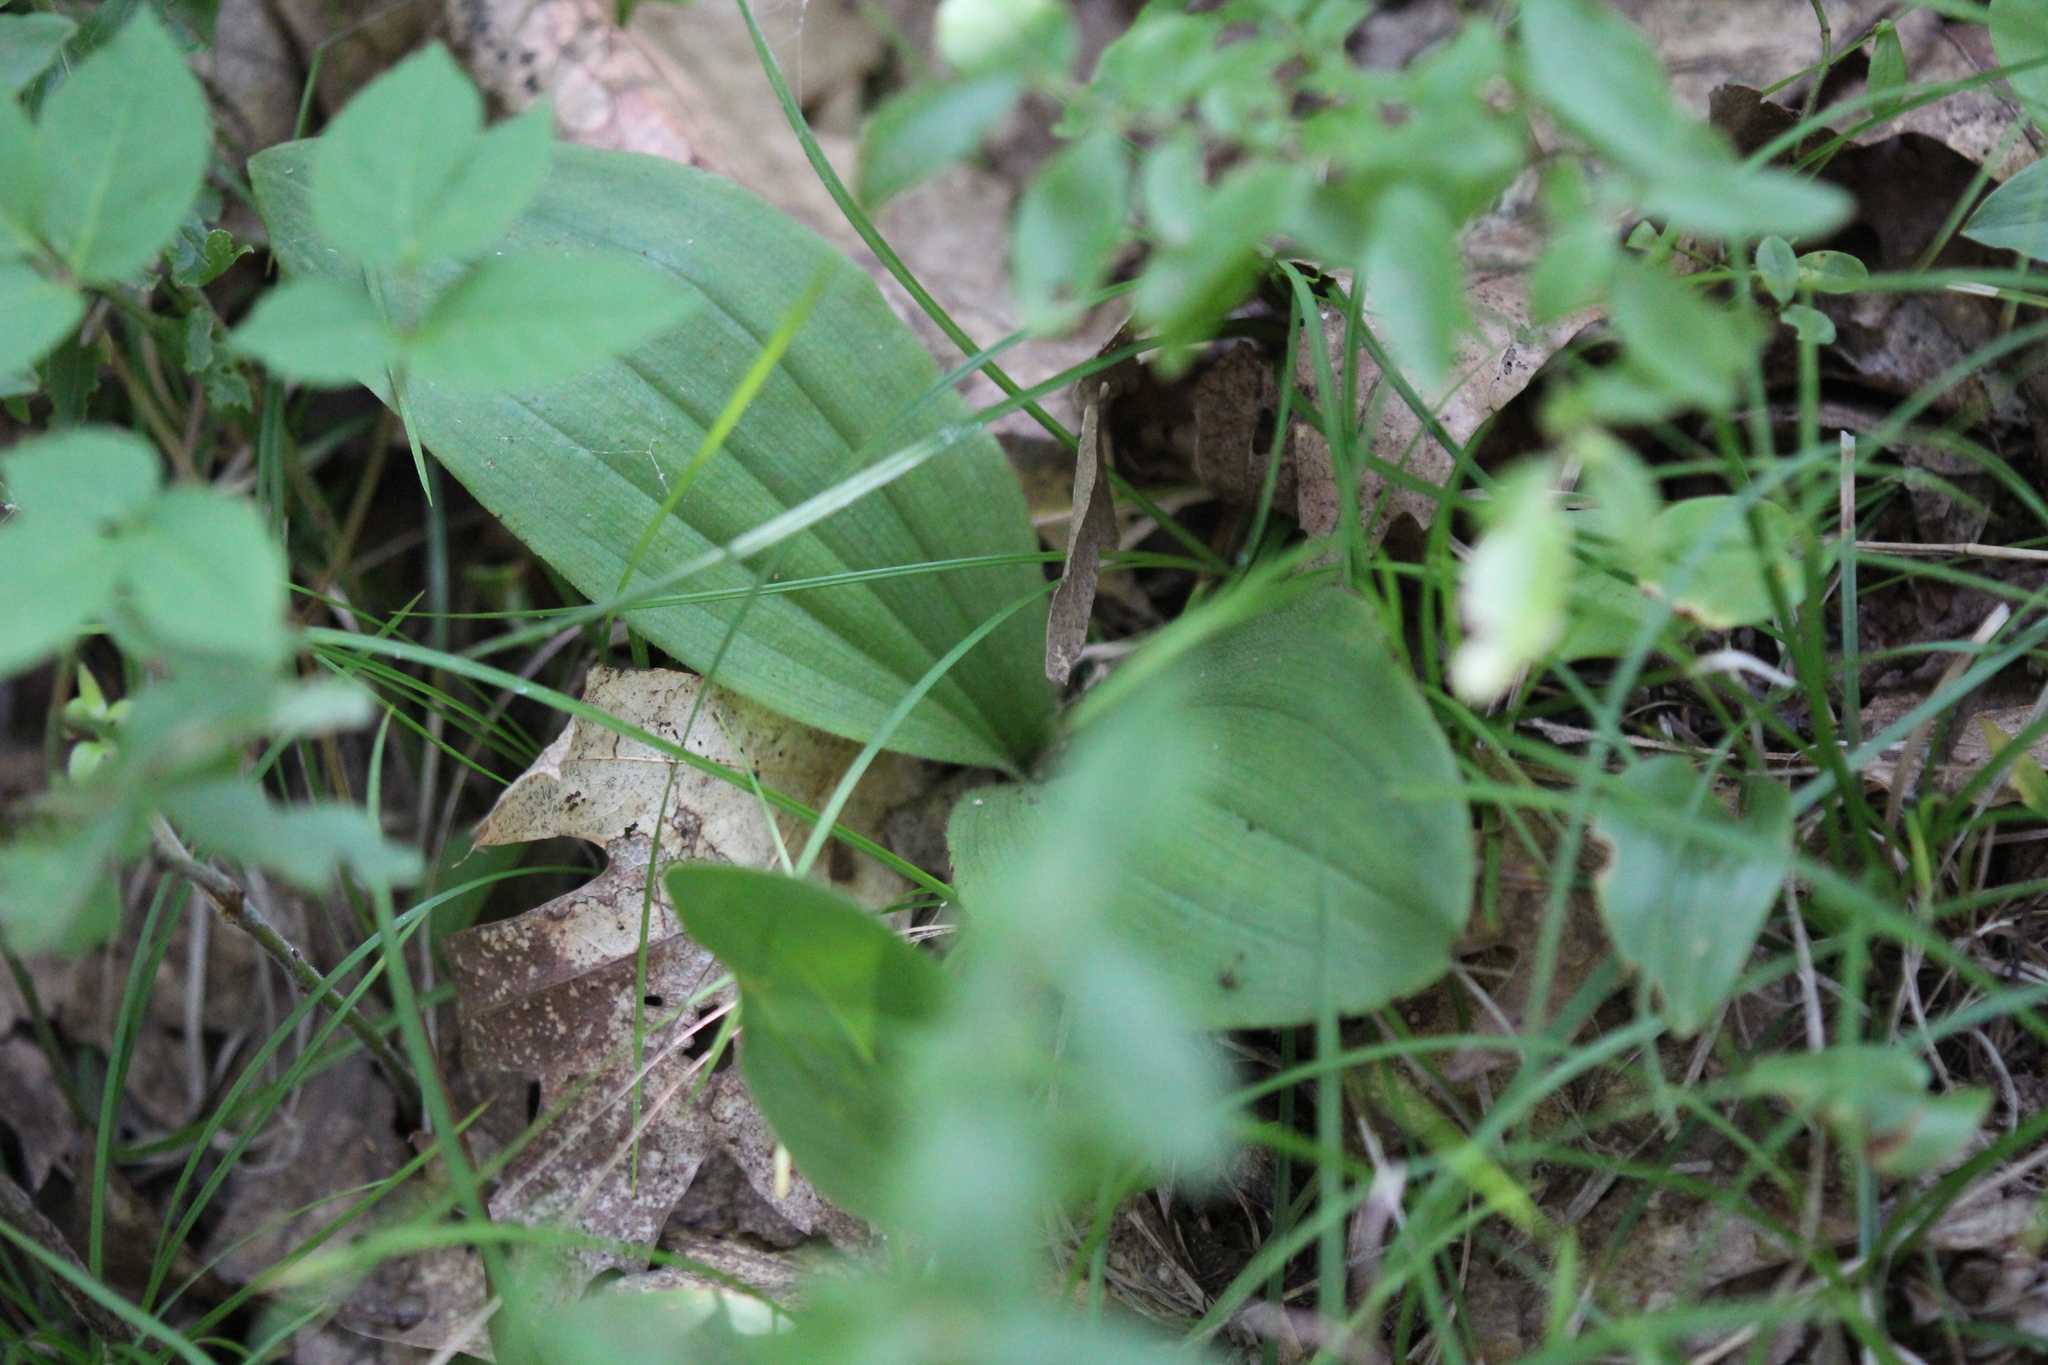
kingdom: Plantae
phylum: Tracheophyta
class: Liliopsida
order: Asparagales
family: Orchidaceae
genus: Cypripedium
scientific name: Cypripedium acaule
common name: Pink lady's-slipper
